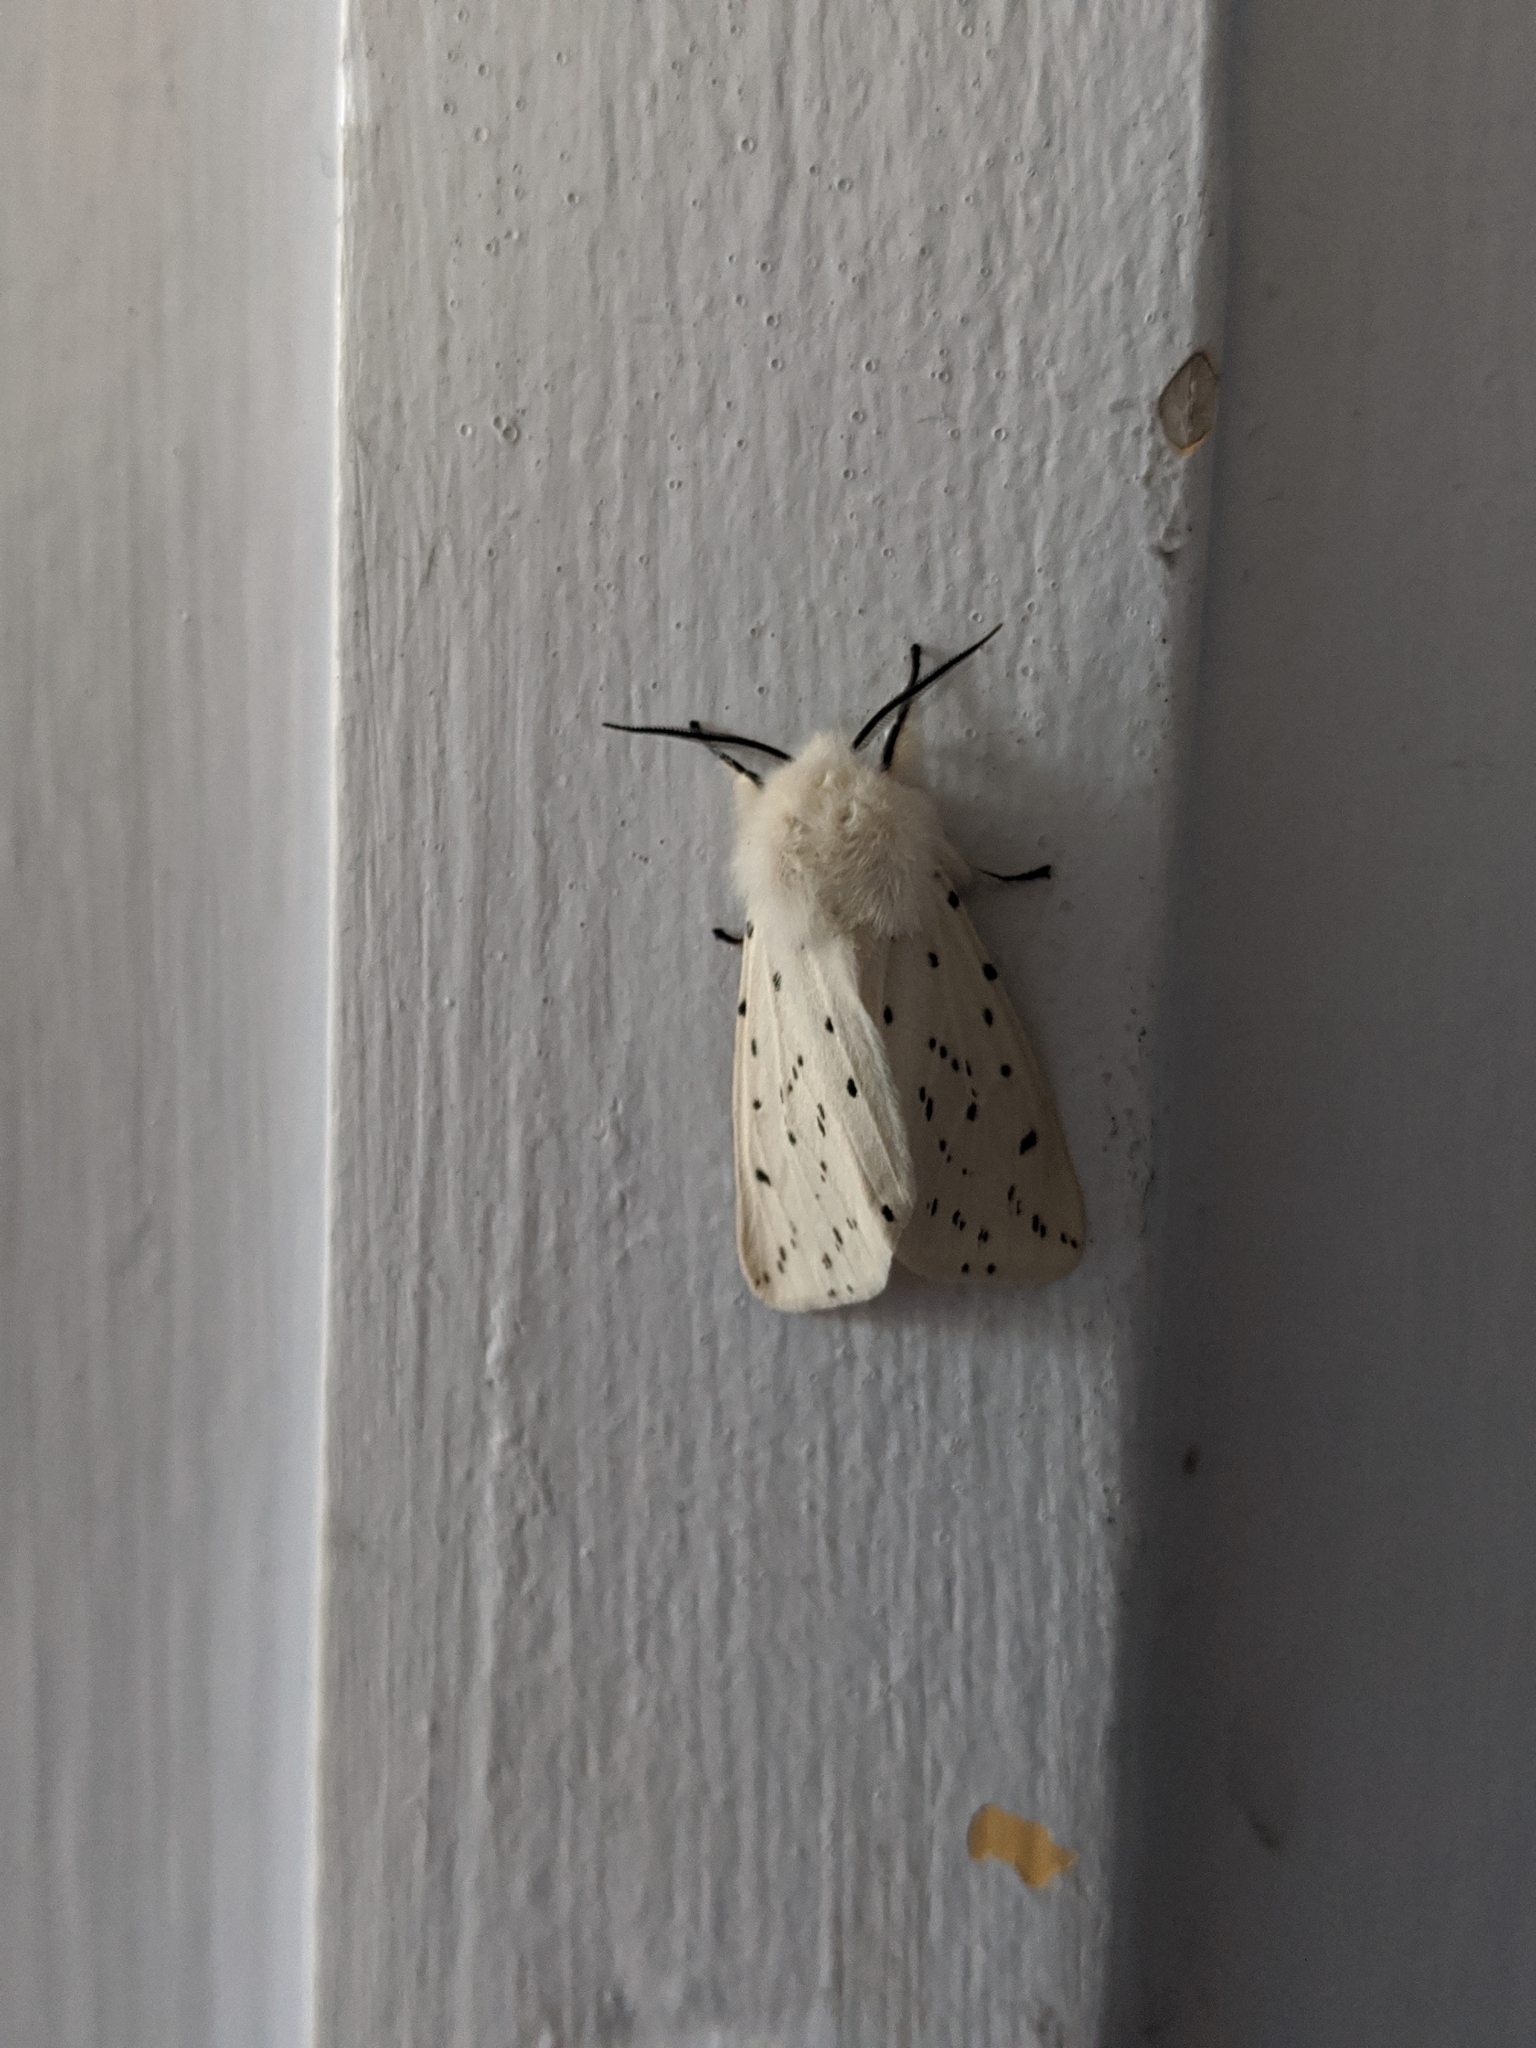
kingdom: Animalia
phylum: Arthropoda
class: Insecta
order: Lepidoptera
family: Erebidae
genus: Spilosoma
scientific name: Spilosoma lubricipeda
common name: White ermine
